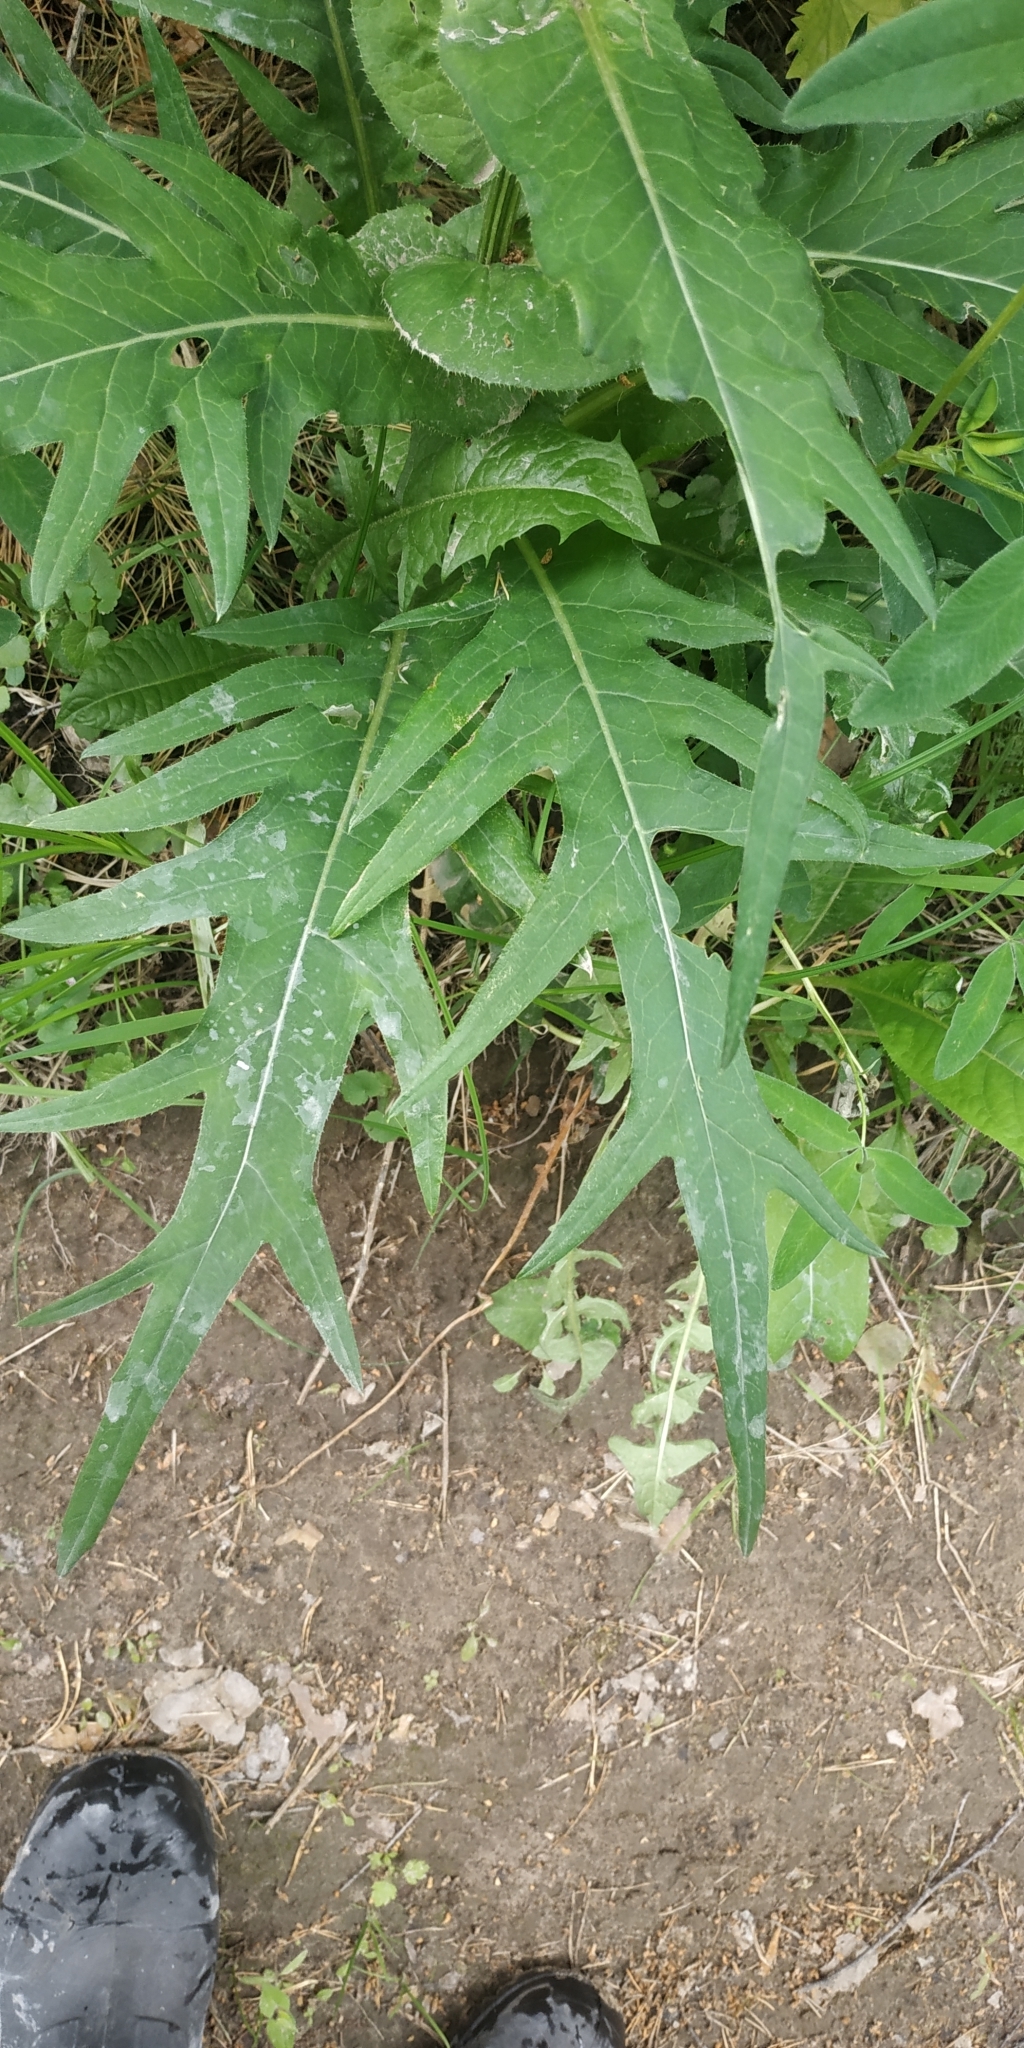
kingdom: Plantae
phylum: Tracheophyta
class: Magnoliopsida
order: Asterales
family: Asteraceae
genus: Cirsium
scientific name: Cirsium heterophyllum
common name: Melancholy thistle
